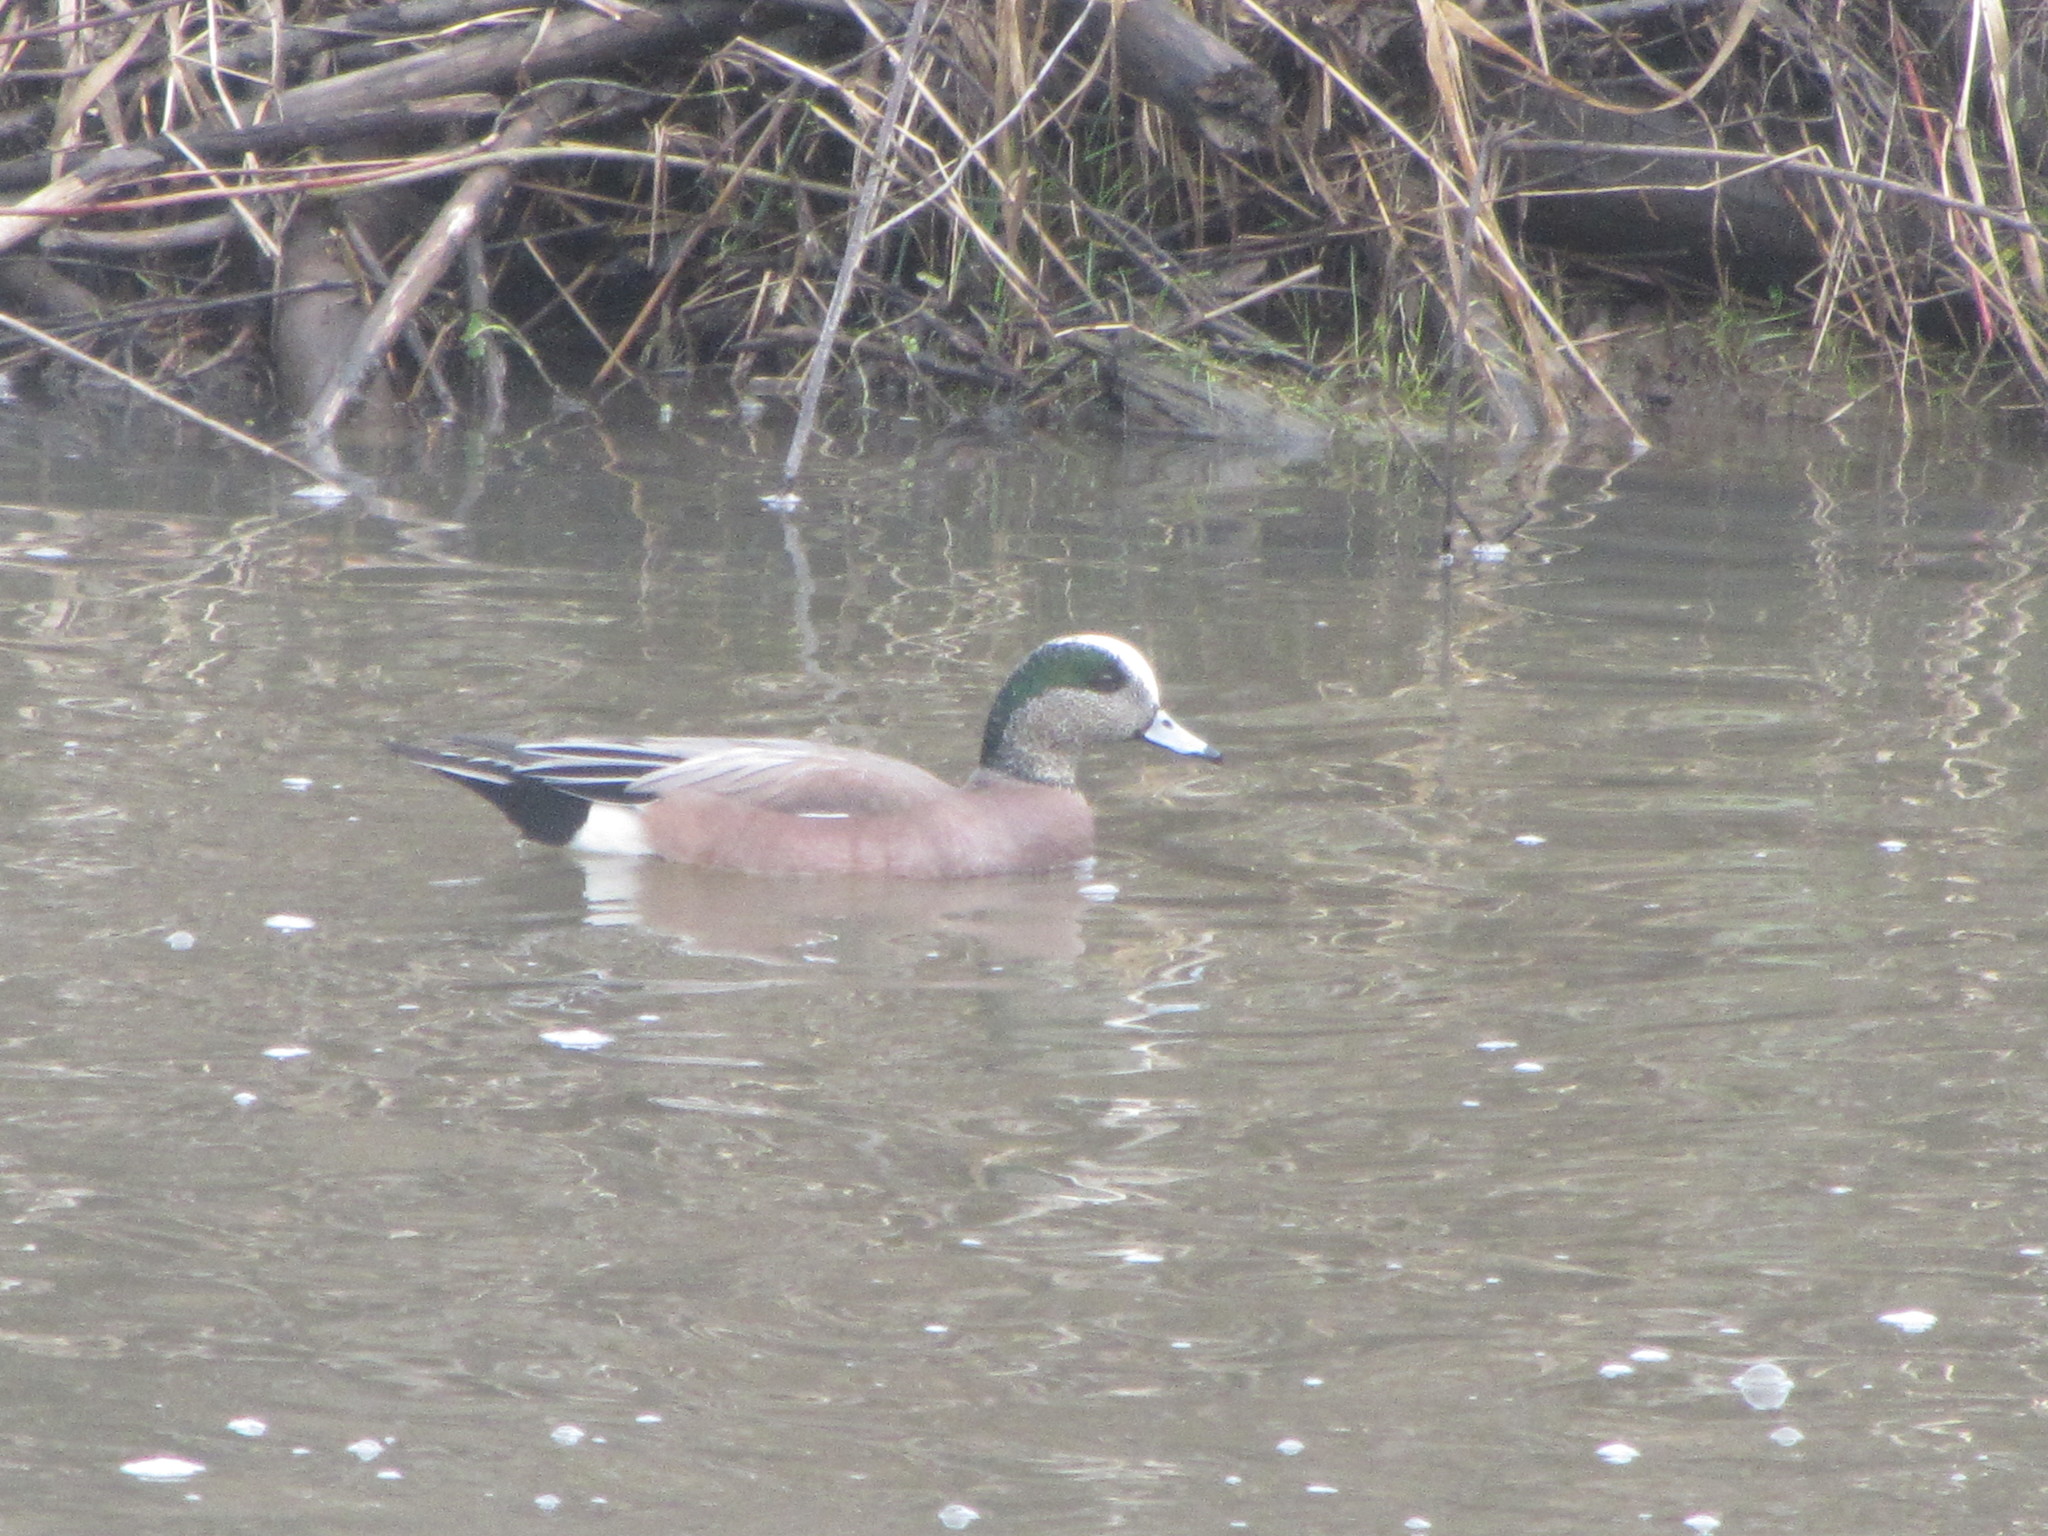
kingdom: Animalia
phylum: Chordata
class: Aves
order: Anseriformes
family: Anatidae
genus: Mareca
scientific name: Mareca americana
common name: American wigeon
